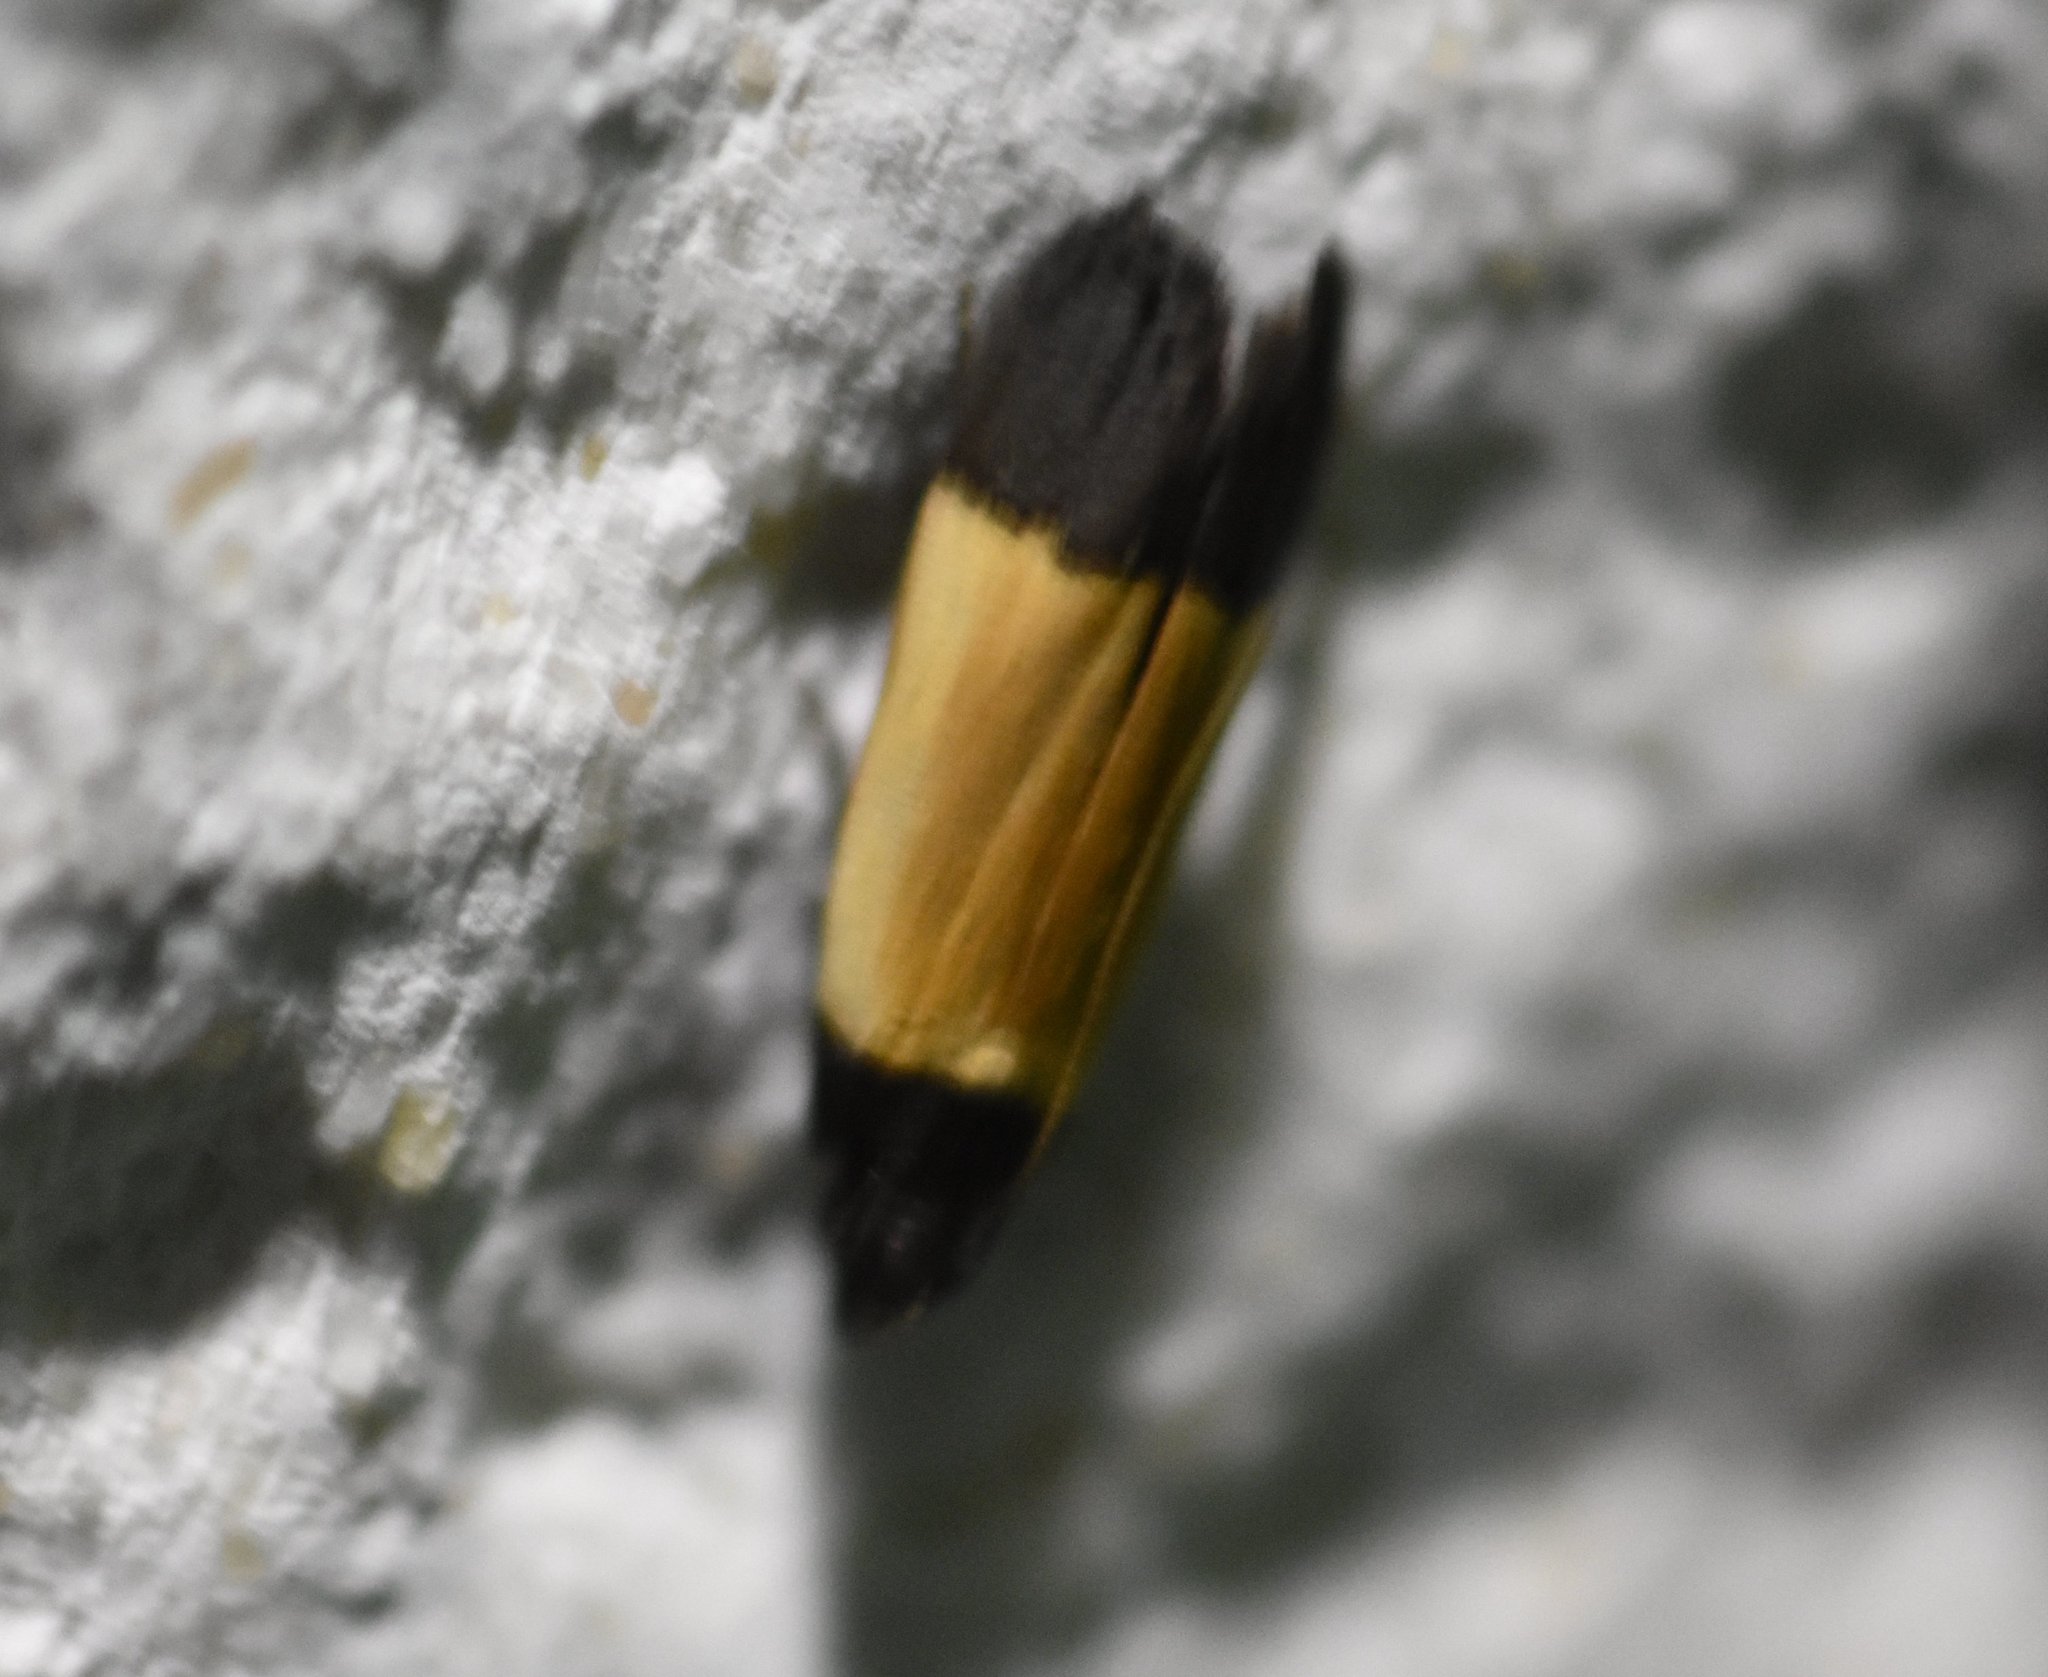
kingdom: Animalia
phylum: Arthropoda
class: Insecta
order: Lepidoptera
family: Gelechiidae
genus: Anacampsis
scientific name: Anacampsis coverdalella
